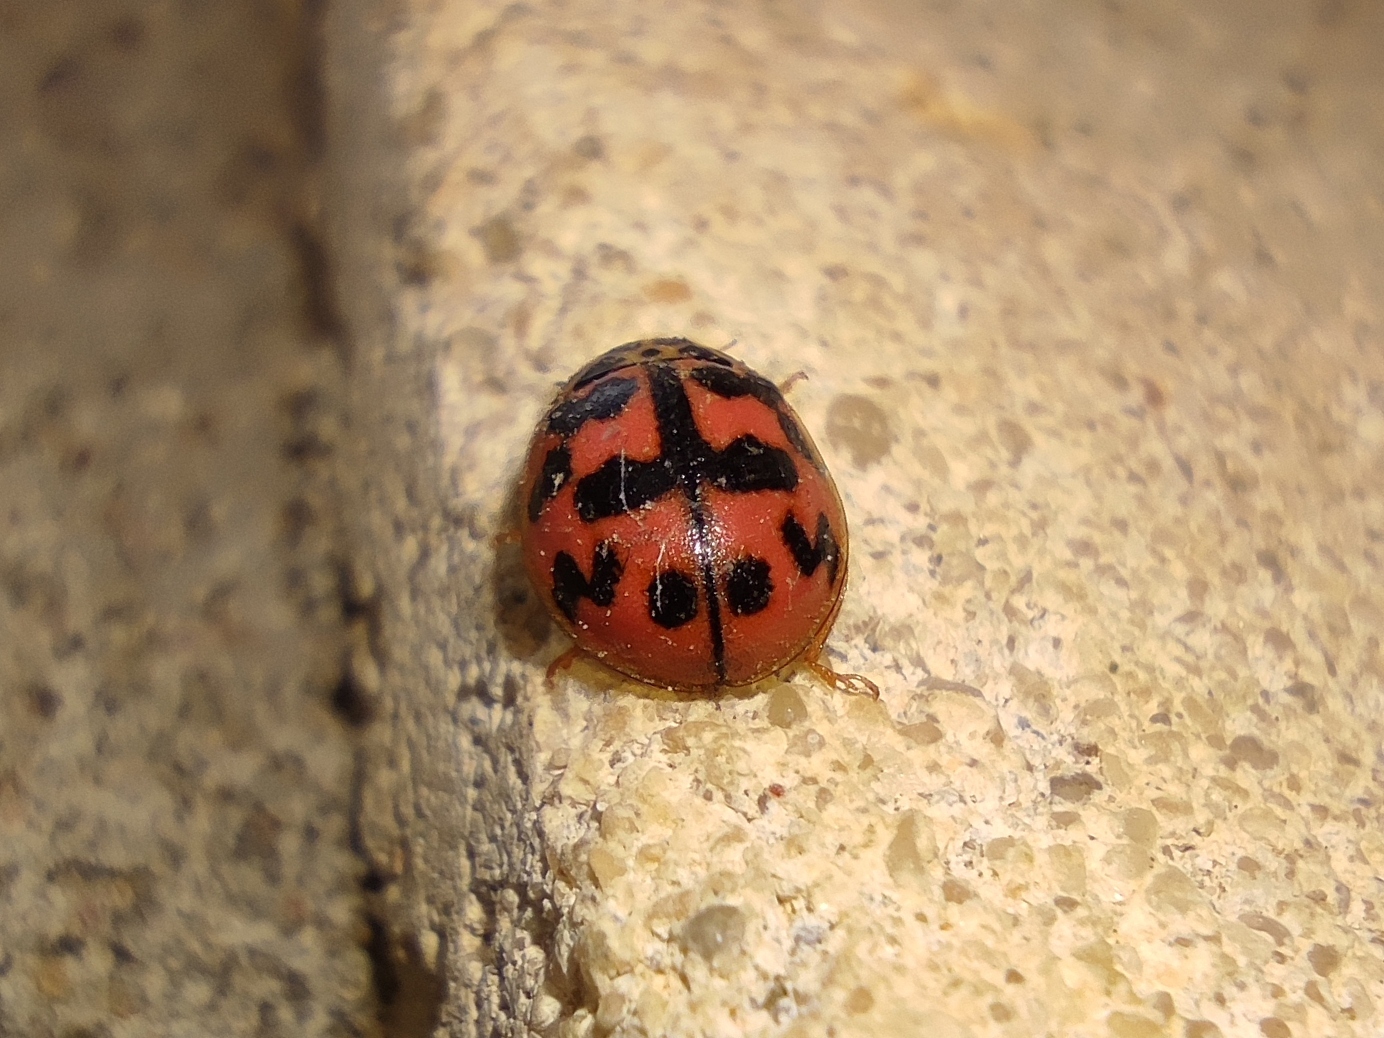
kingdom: Animalia
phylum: Arthropoda
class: Insecta
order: Coleoptera
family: Coccinellidae
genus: Oenopia
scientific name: Oenopia conglobata
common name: Ladybird beetle
